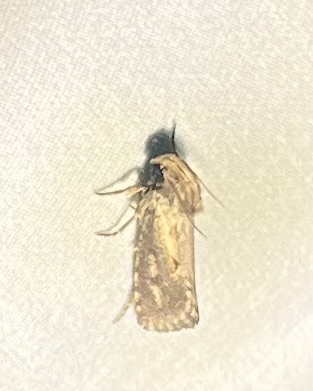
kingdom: Animalia
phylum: Arthropoda
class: Insecta
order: Lepidoptera
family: Tineidae
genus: Acrolophus
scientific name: Acrolophus popeanella
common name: Clemens' grass tubeworm moth
